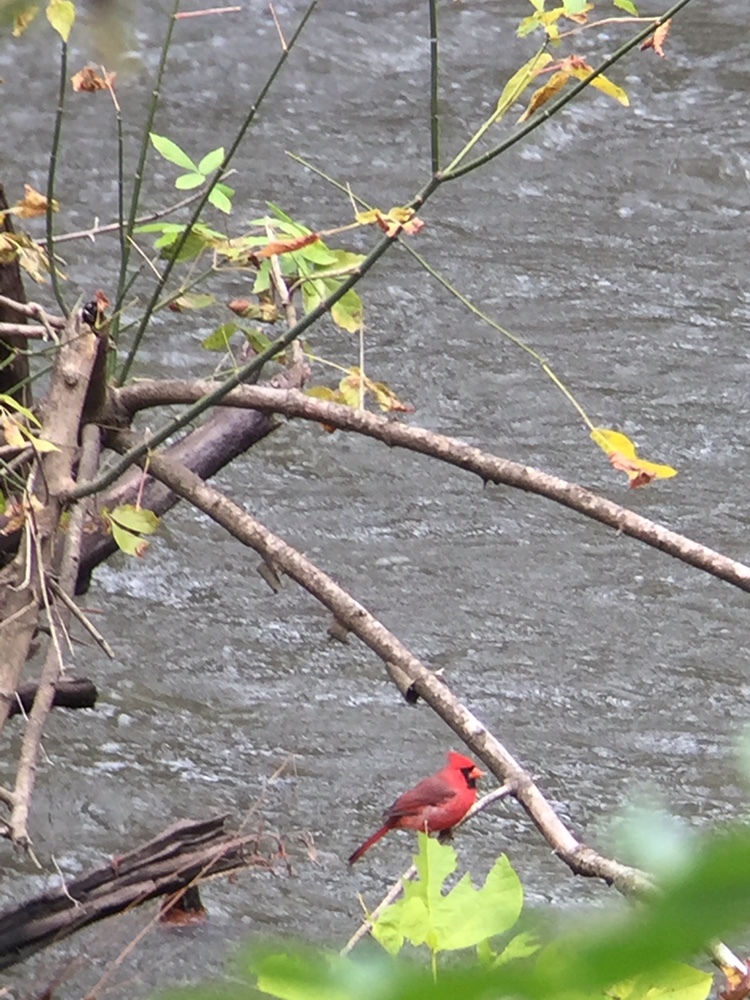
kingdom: Animalia
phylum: Chordata
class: Aves
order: Passeriformes
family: Cardinalidae
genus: Cardinalis
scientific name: Cardinalis cardinalis
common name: Northern cardinal
